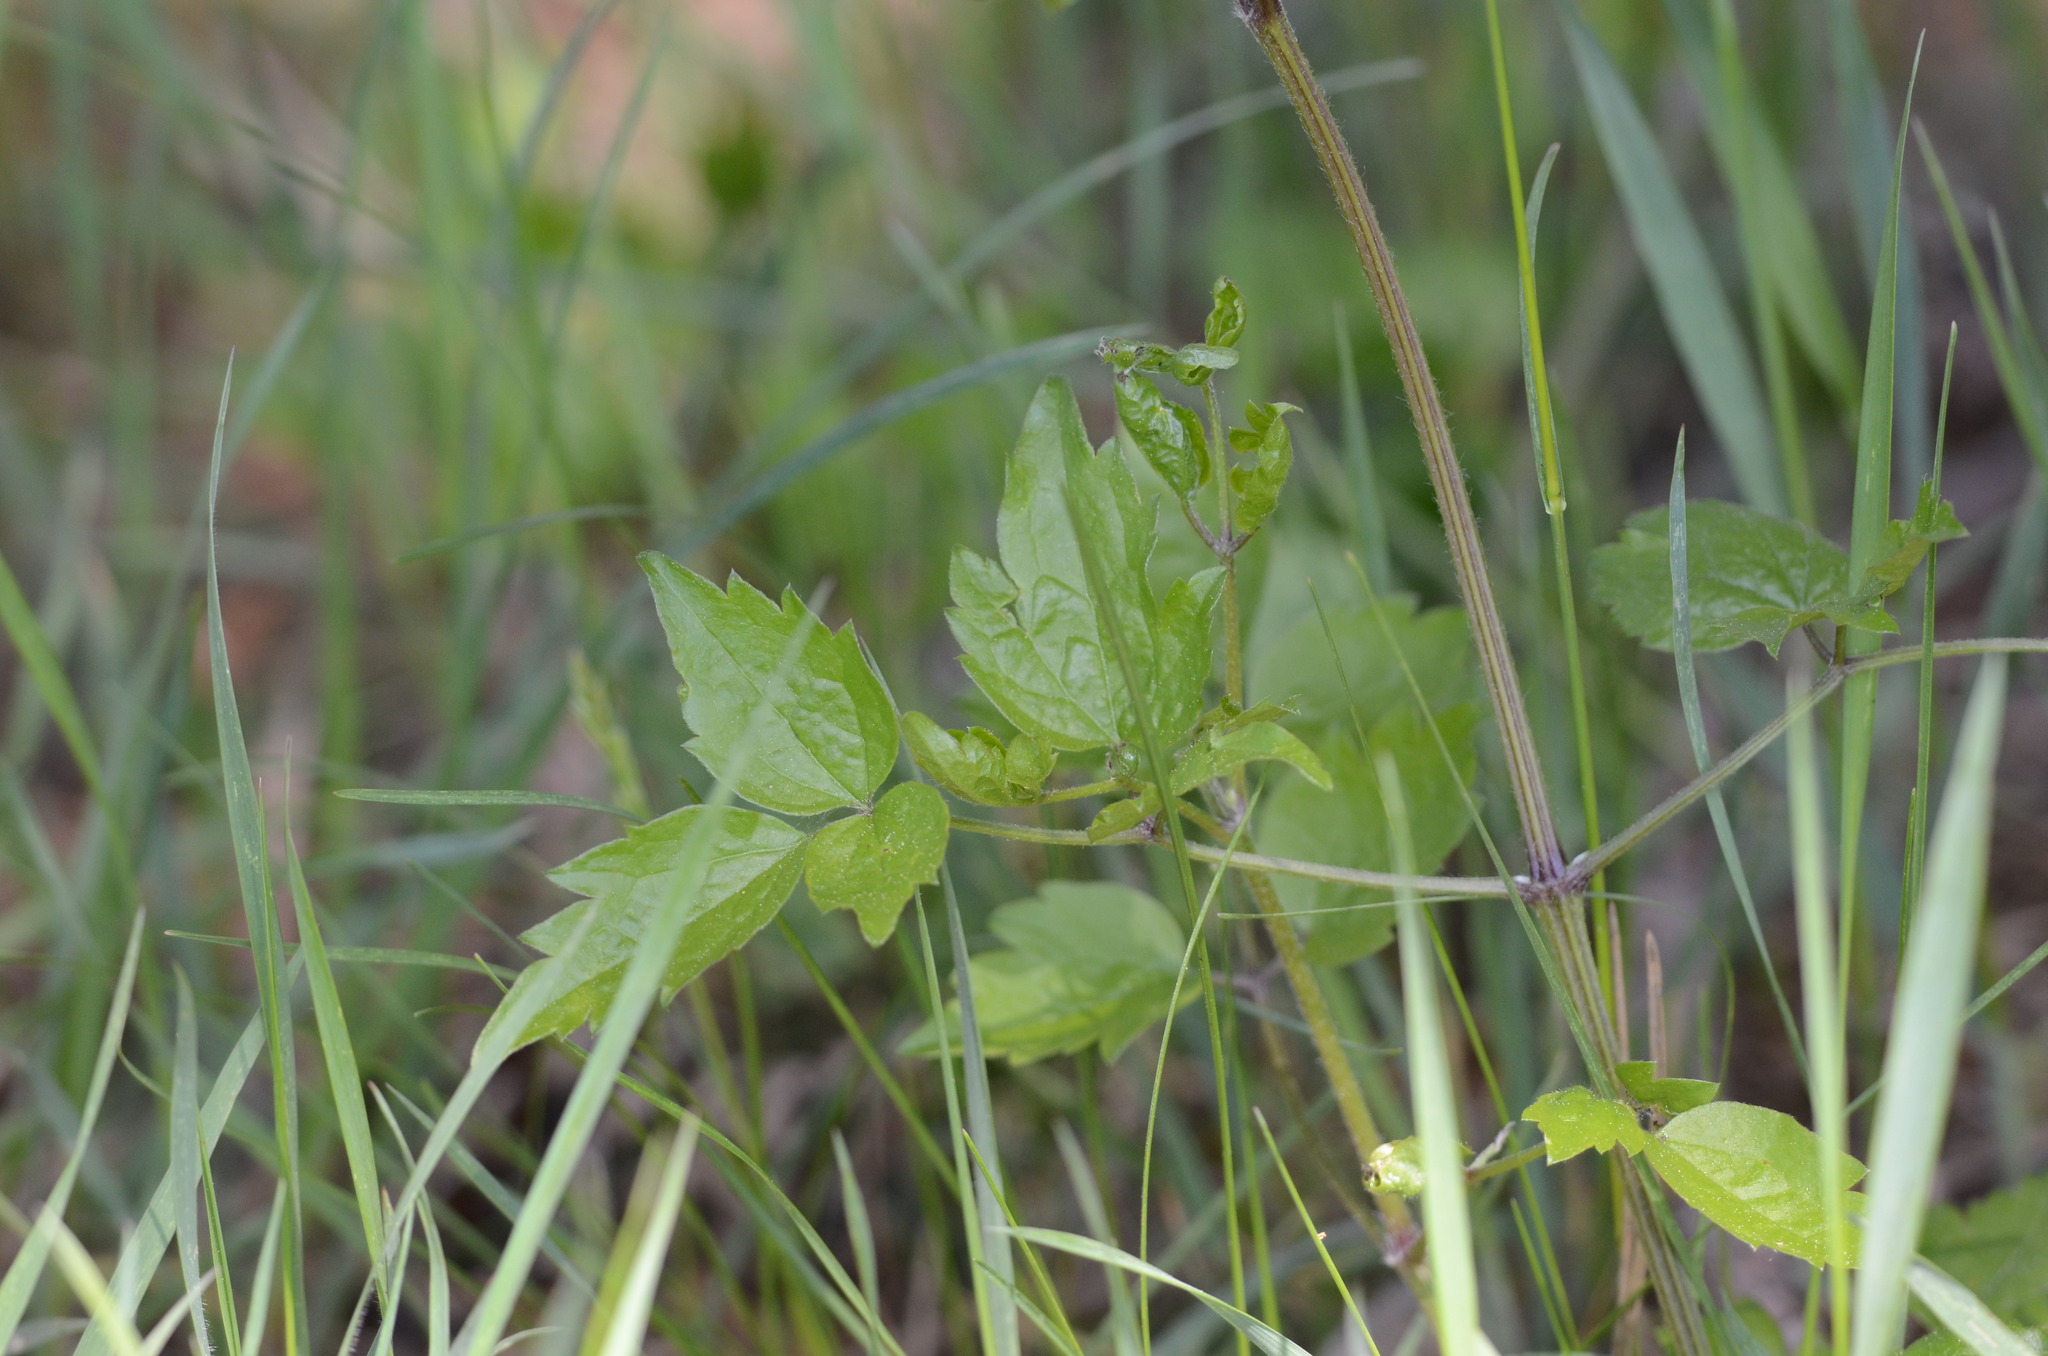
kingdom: Plantae
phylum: Tracheophyta
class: Magnoliopsida
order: Ranunculales
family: Ranunculaceae
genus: Clematis
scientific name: Clematis vitalba
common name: Evergreen clematis
